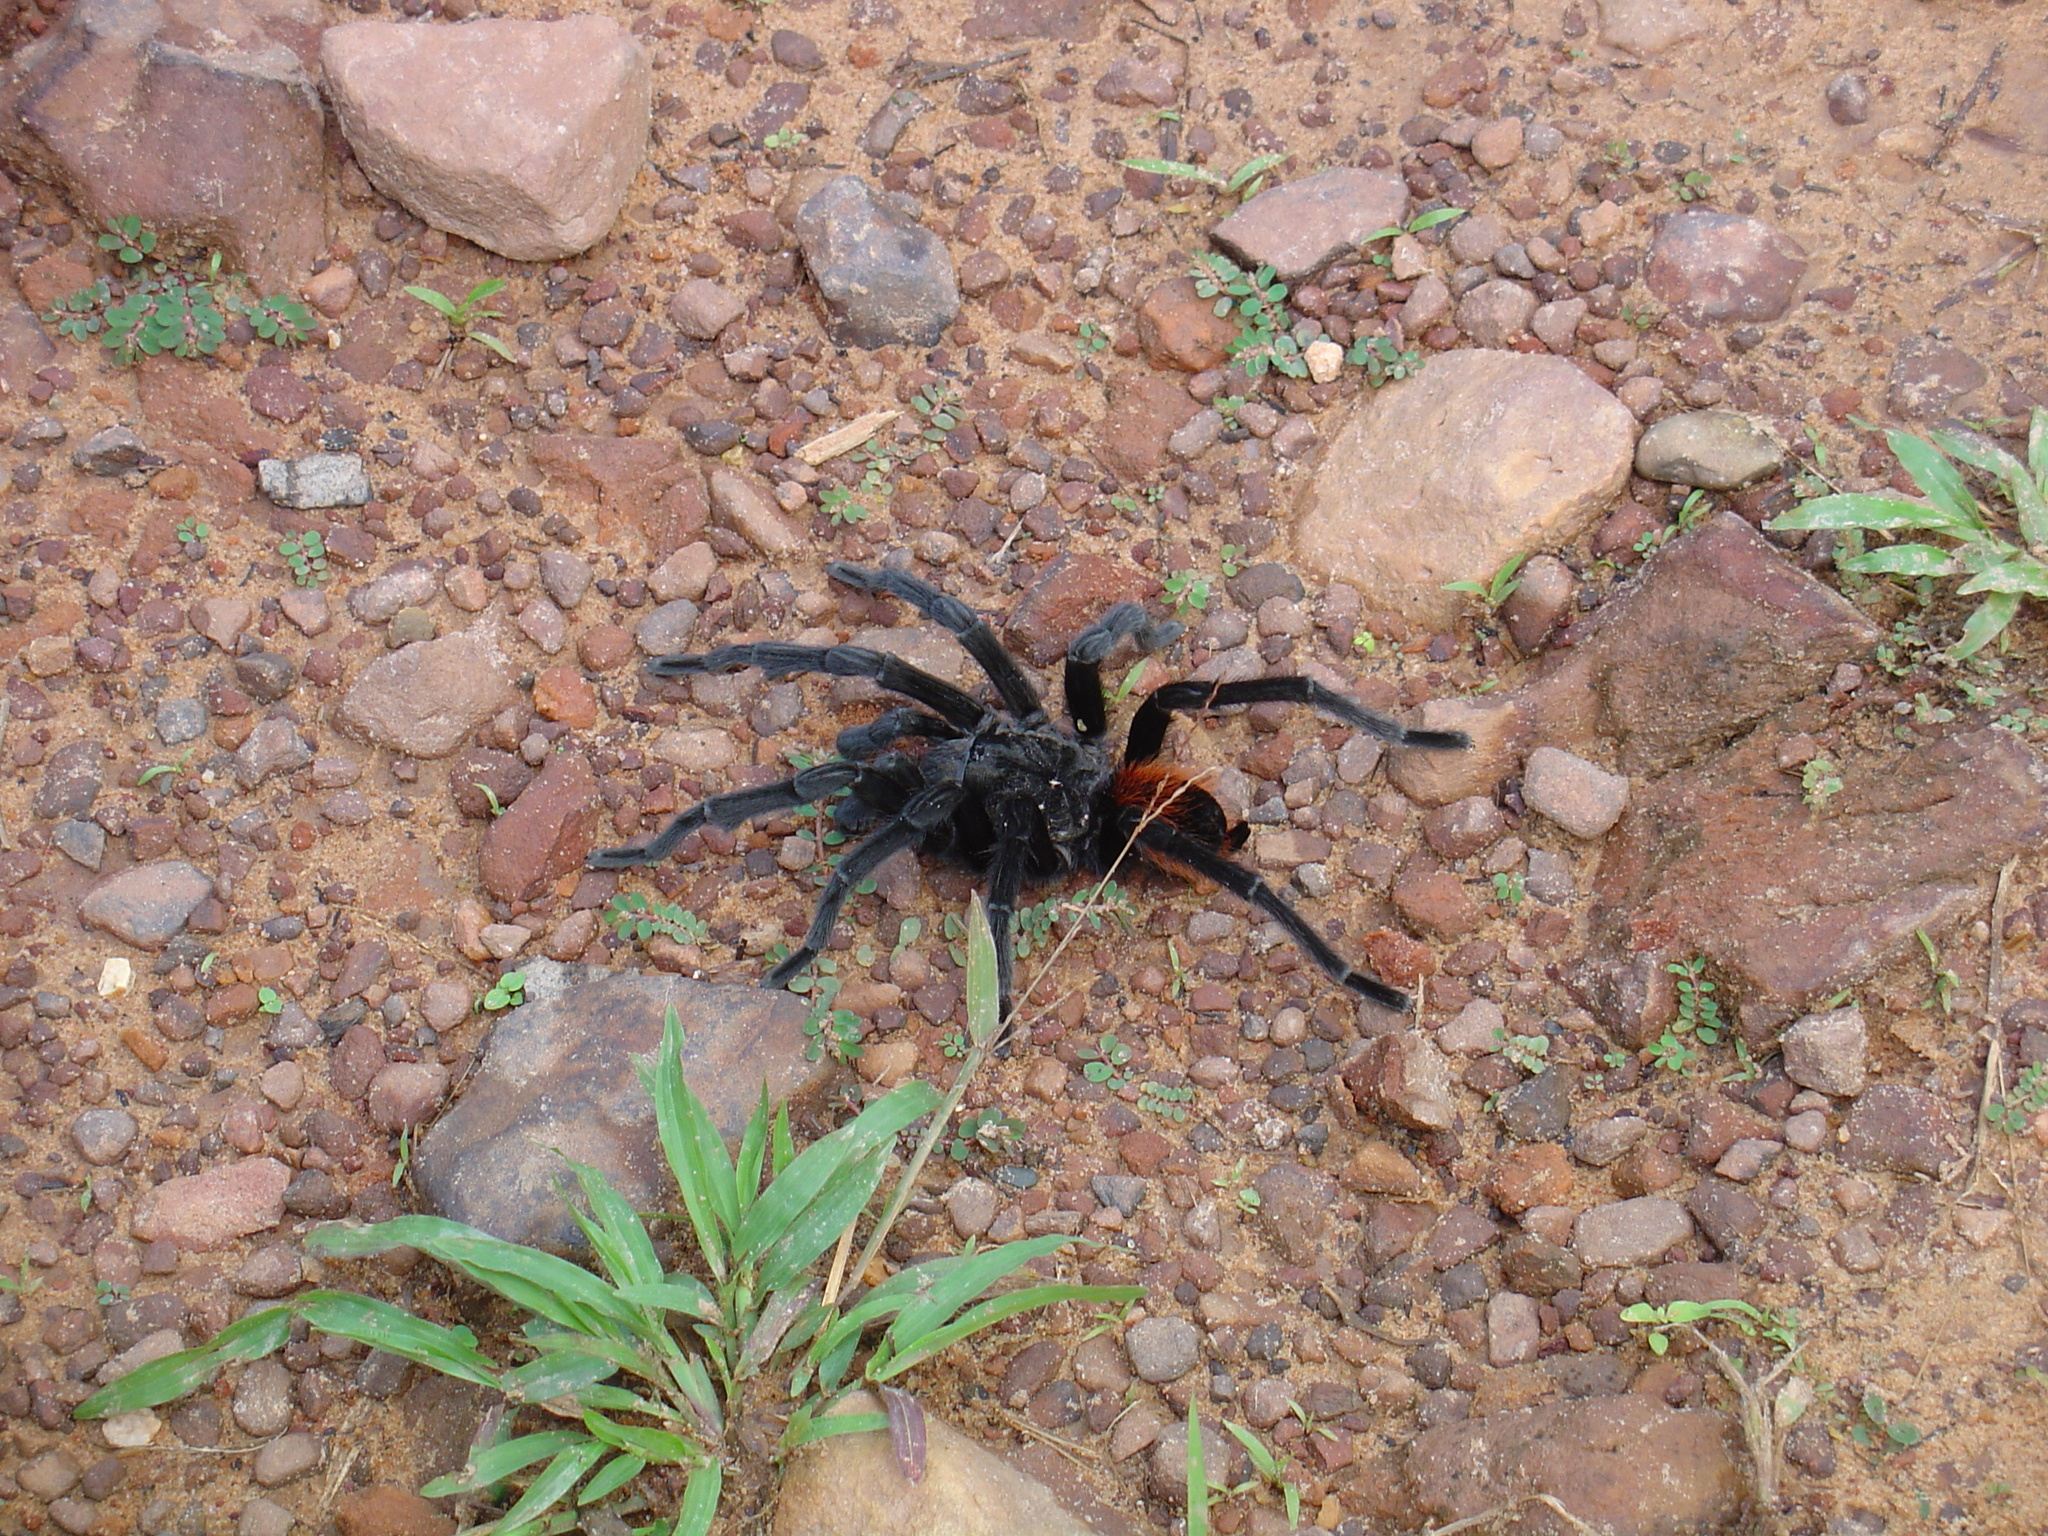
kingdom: Animalia
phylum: Arthropoda
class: Arachnida
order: Araneae
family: Theraphosidae
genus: Tliltocatl
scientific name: Tliltocatl vagans
